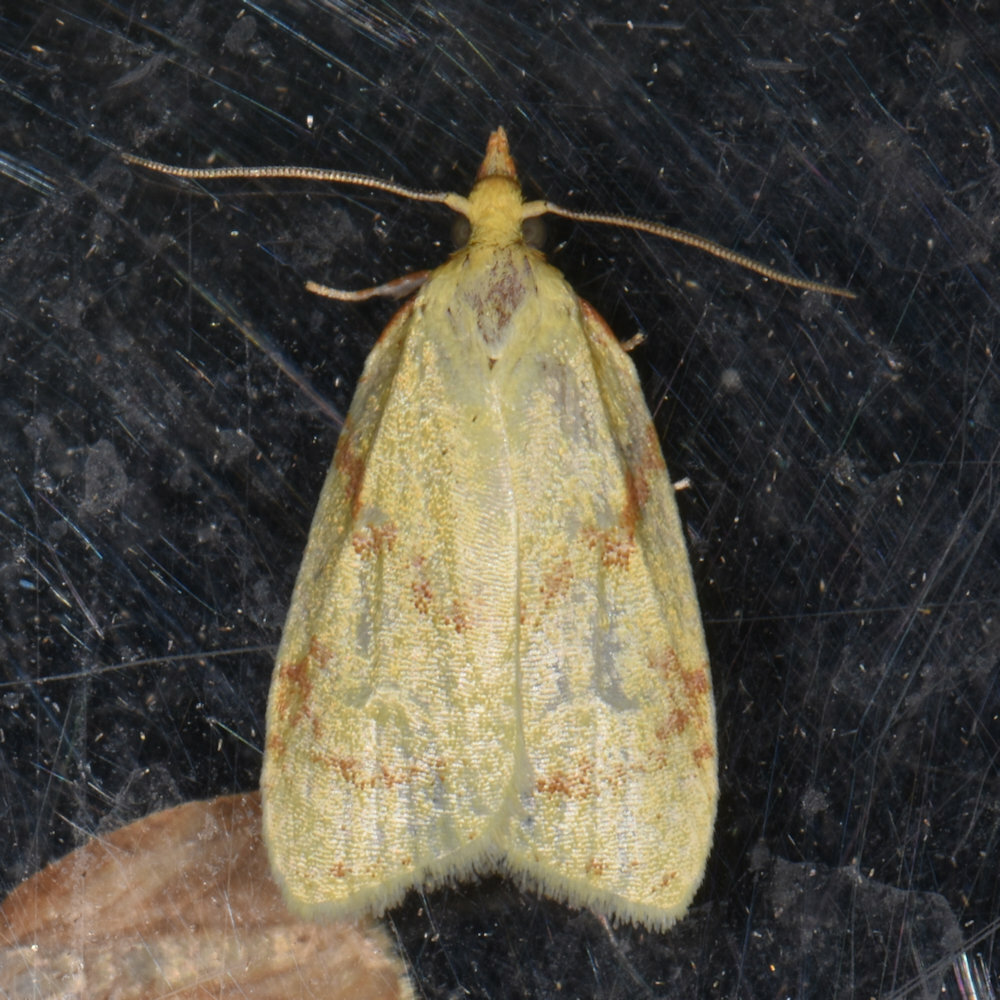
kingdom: Animalia
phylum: Arthropoda
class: Insecta
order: Lepidoptera
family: Crambidae
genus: Pantographa
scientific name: Pantographa limata
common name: Basswood leafroller moth
